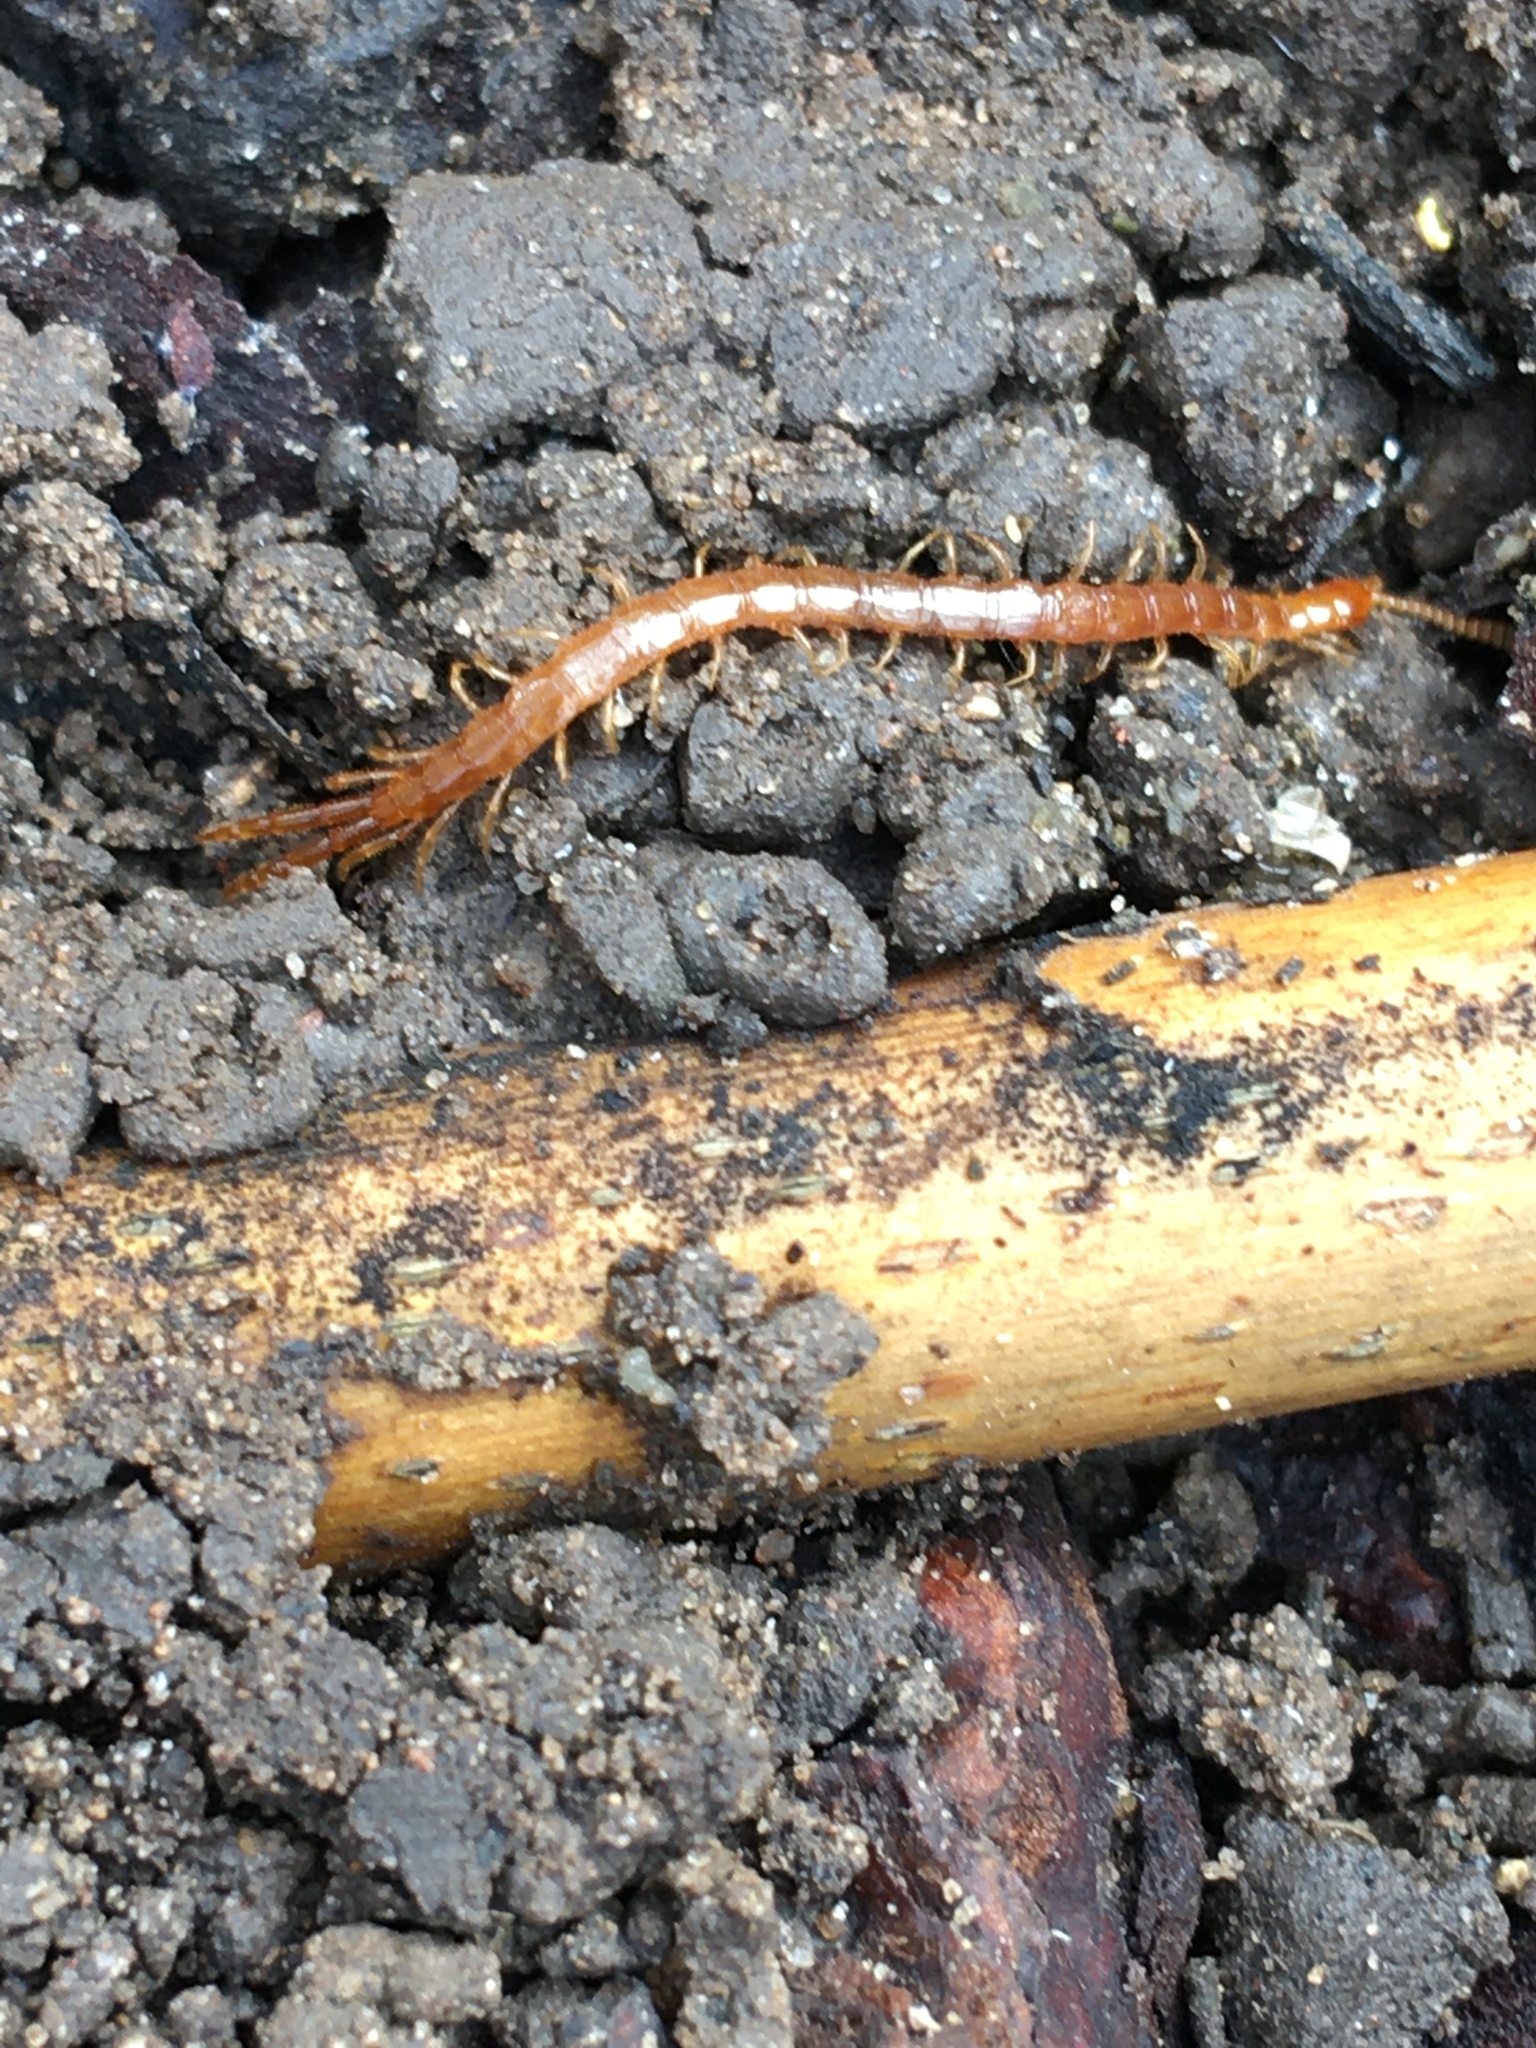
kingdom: Animalia
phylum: Arthropoda
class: Chilopoda
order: Scolopendromorpha
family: Cryptopidae
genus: Cryptops
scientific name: Cryptops
